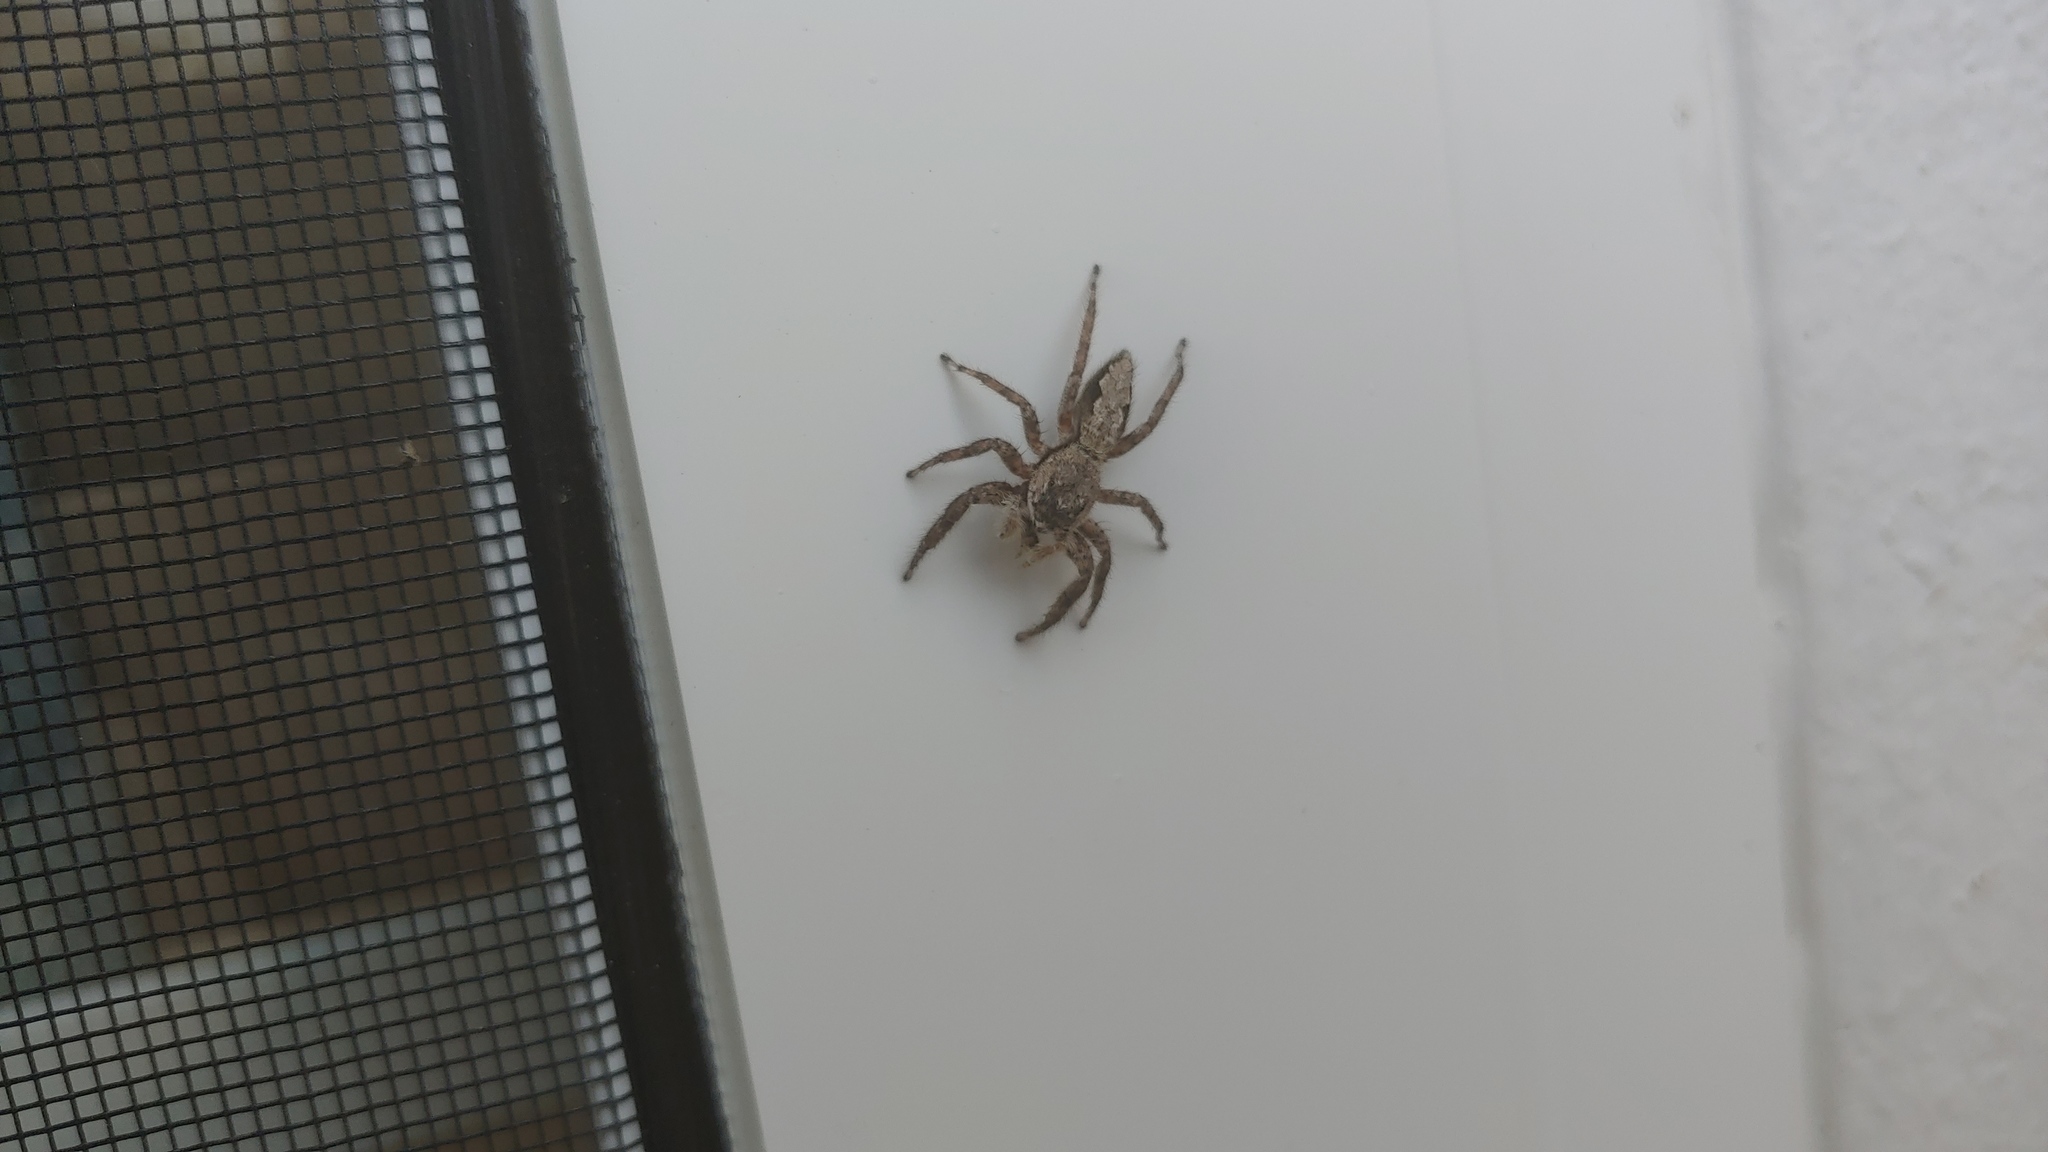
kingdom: Animalia
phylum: Arthropoda
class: Arachnida
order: Araneae
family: Salticidae
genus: Platycryptus
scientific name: Platycryptus undatus
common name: Tan jumping spider
